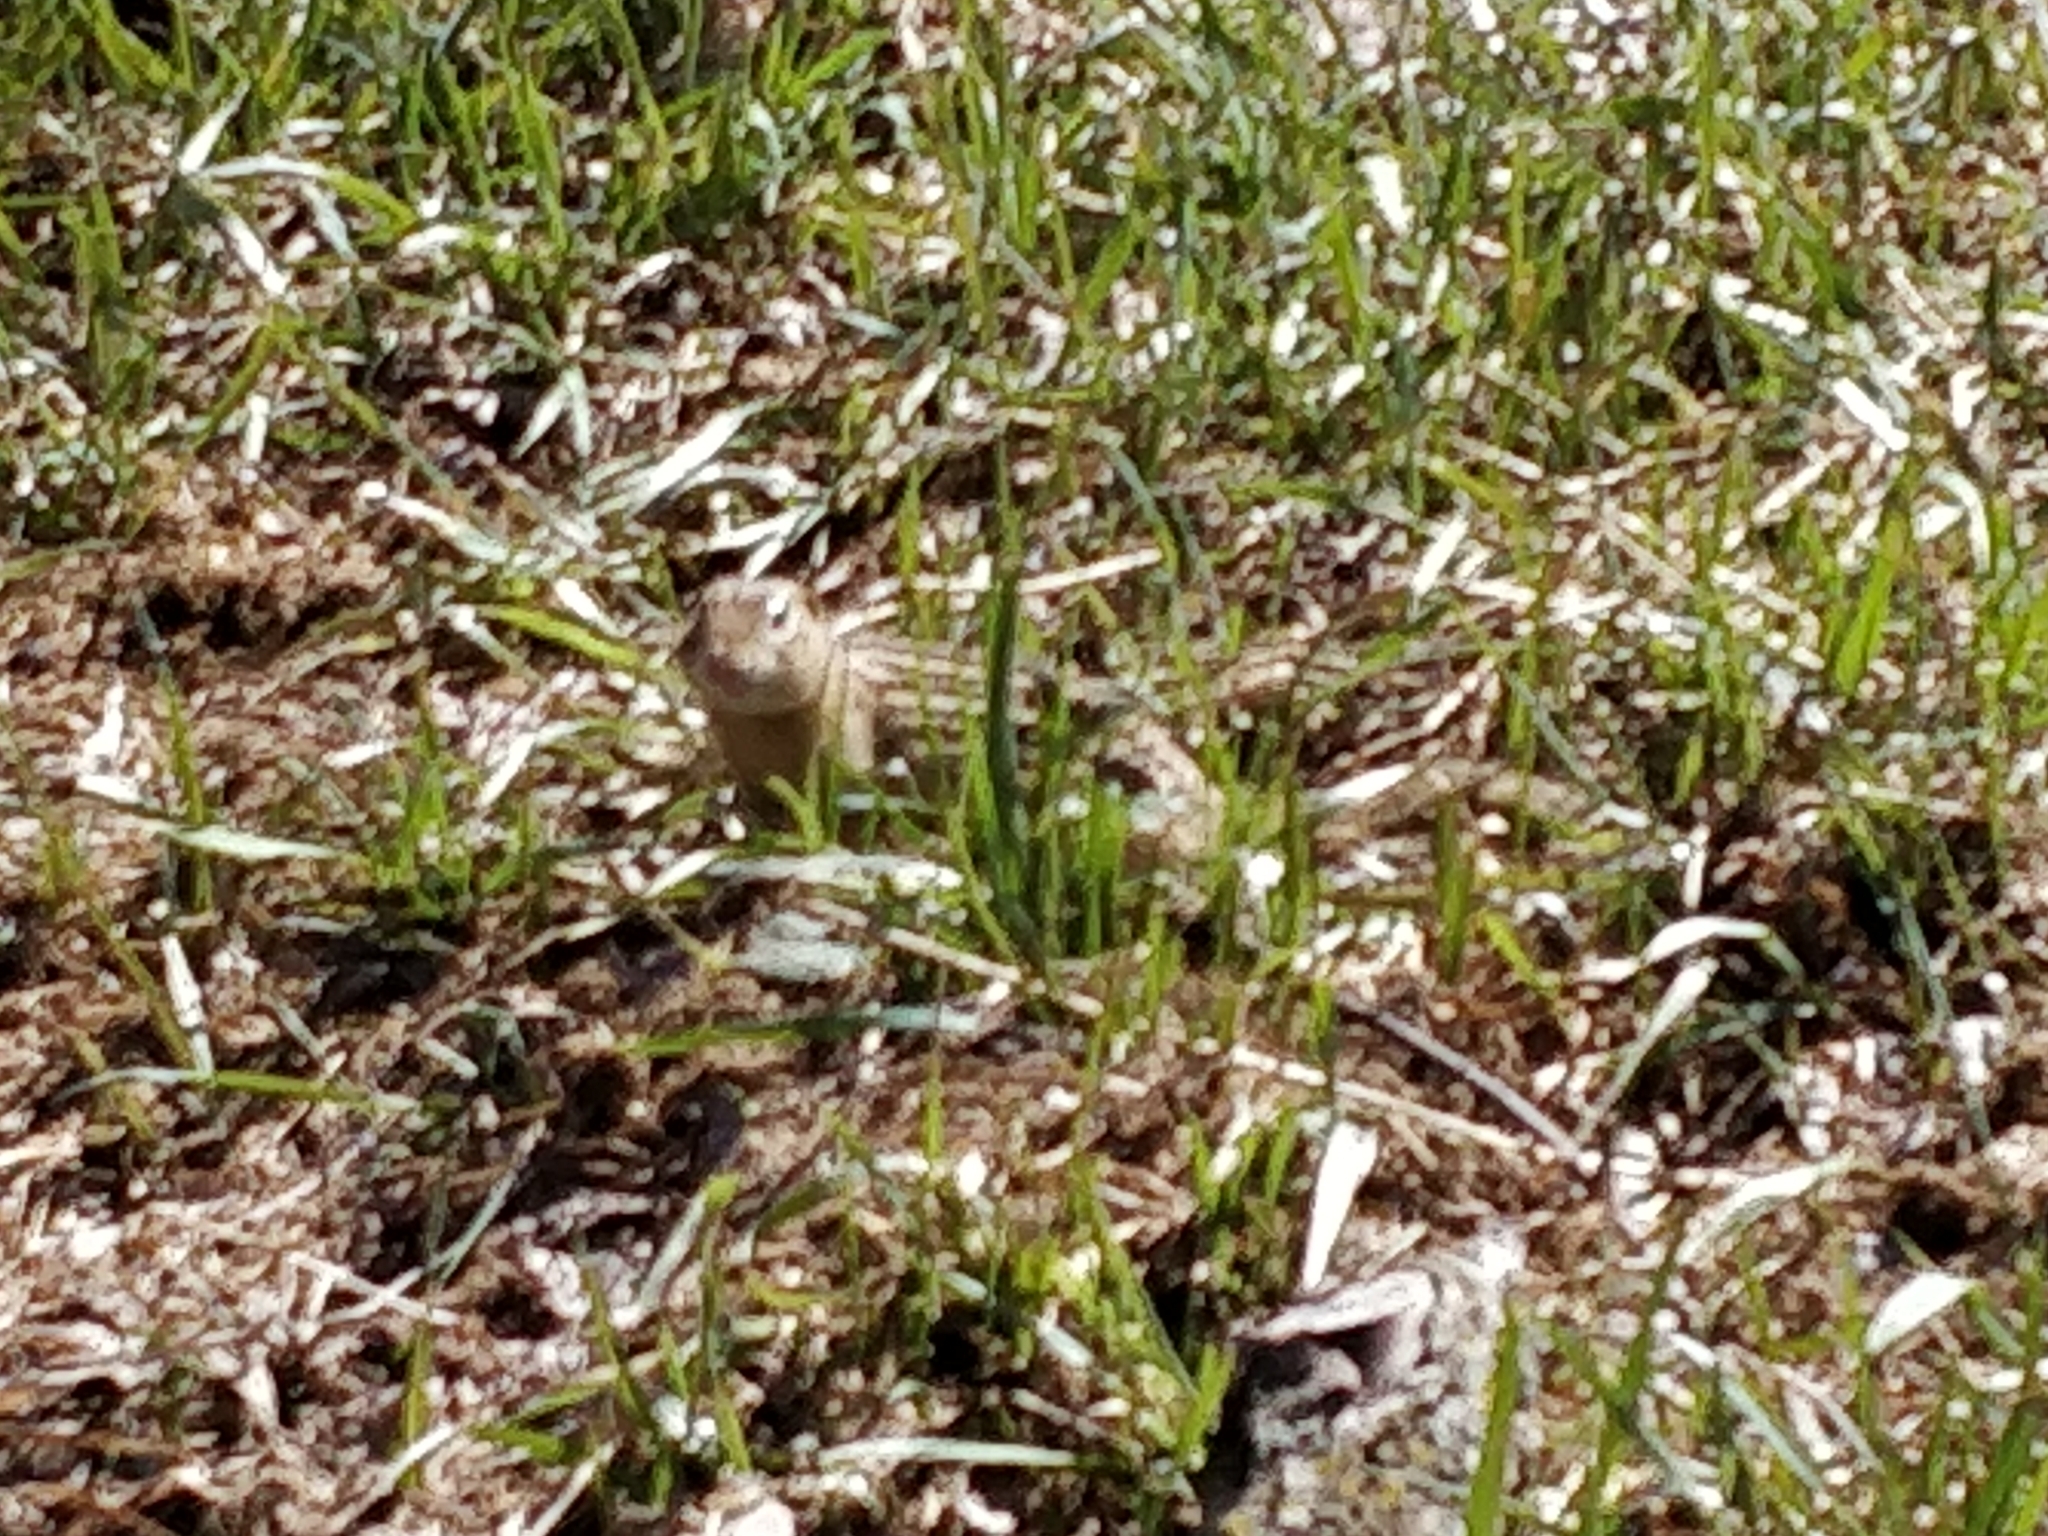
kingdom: Animalia
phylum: Chordata
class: Mammalia
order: Rodentia
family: Sciuridae
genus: Ictidomys
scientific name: Ictidomys tridecemlineatus
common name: Thirteen-lined ground squirrel
